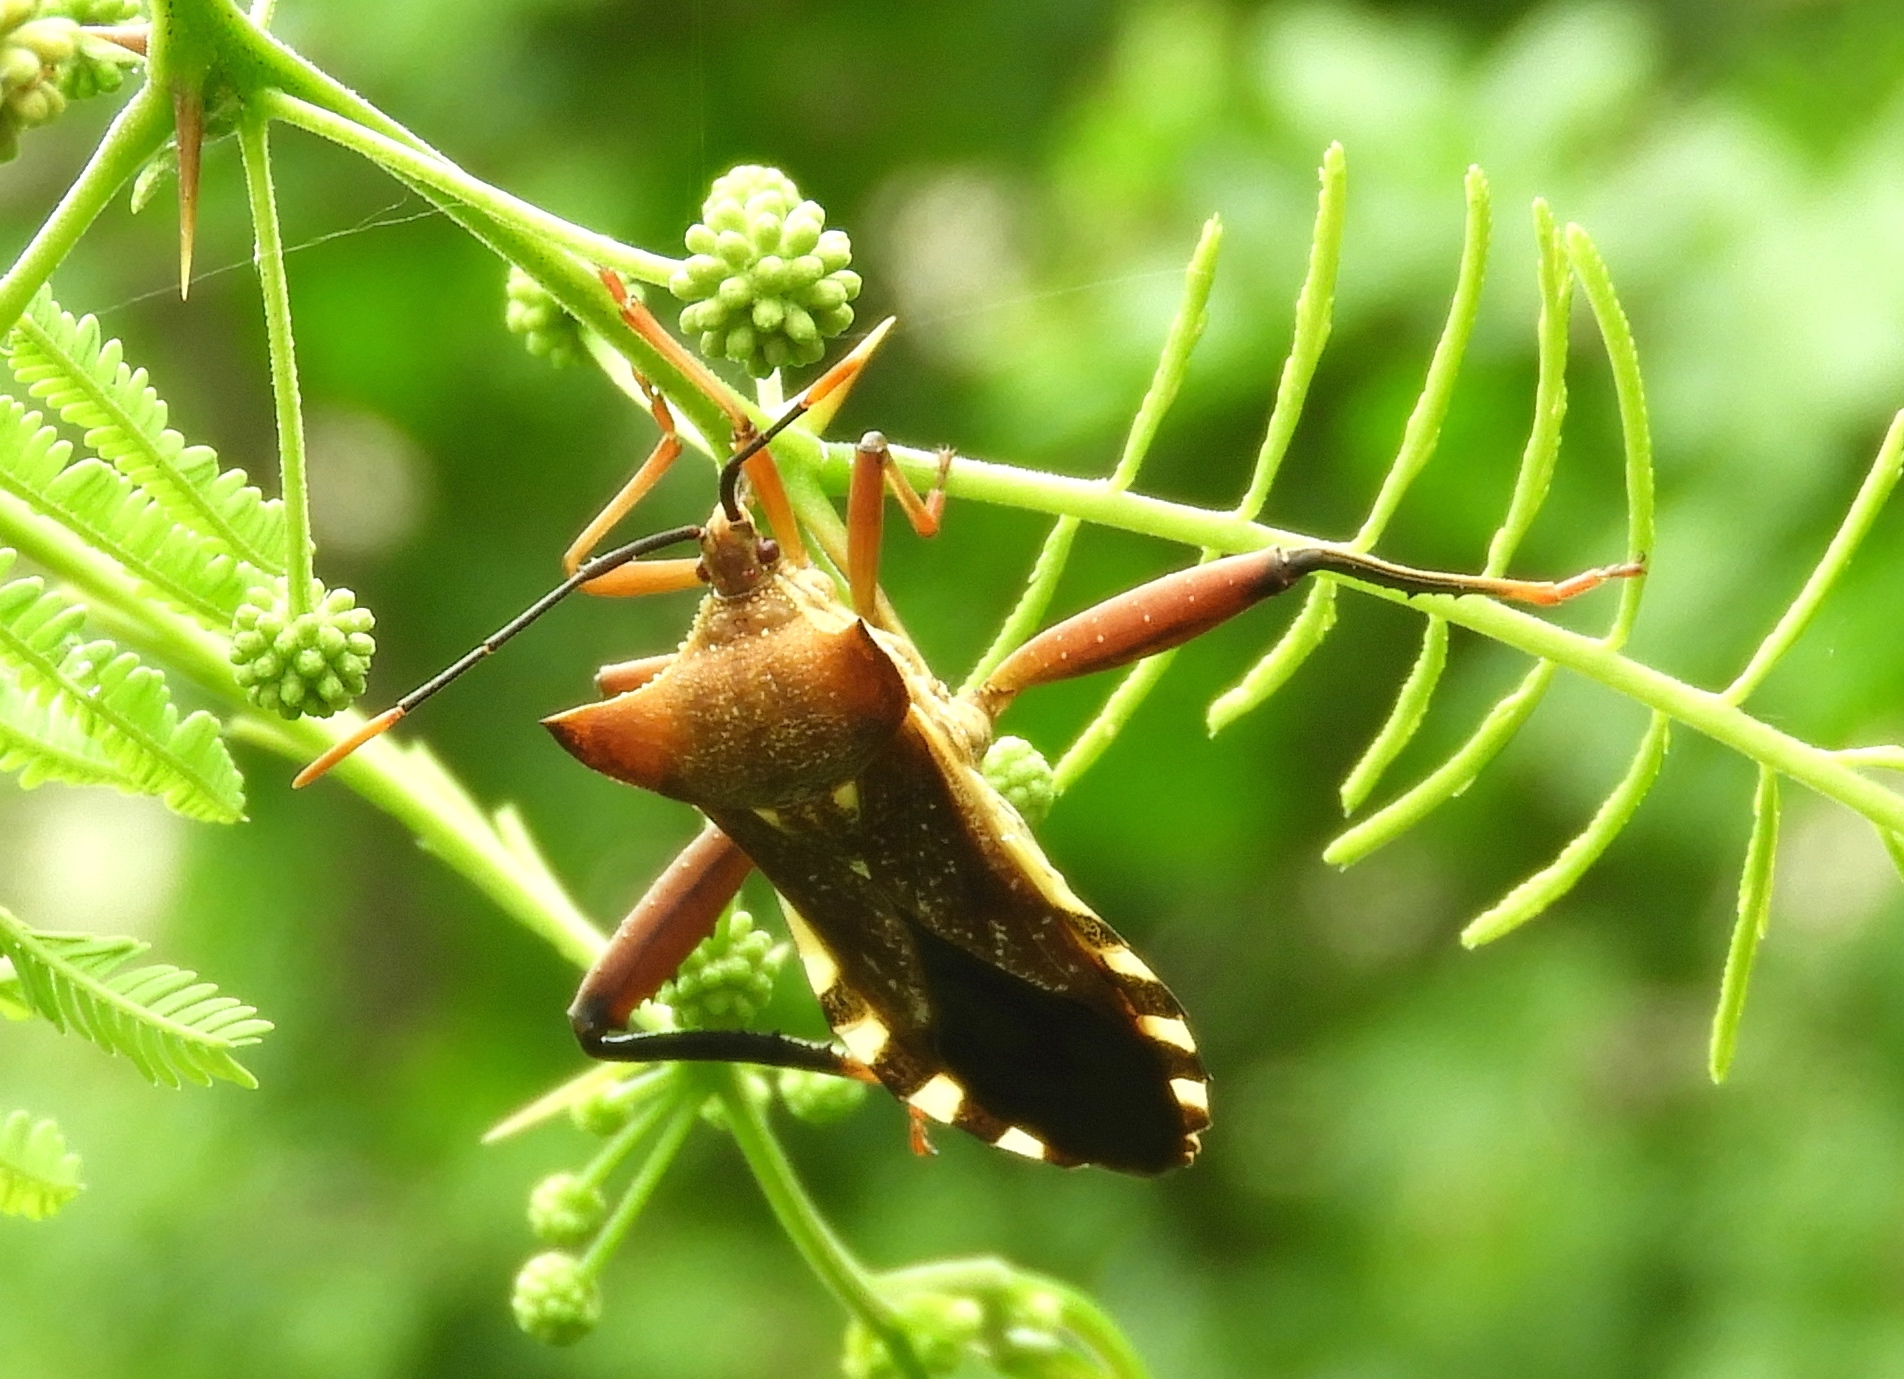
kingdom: Animalia
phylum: Arthropoda
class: Insecta
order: Hemiptera
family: Coreidae
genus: Mozena
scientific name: Mozena lunata
